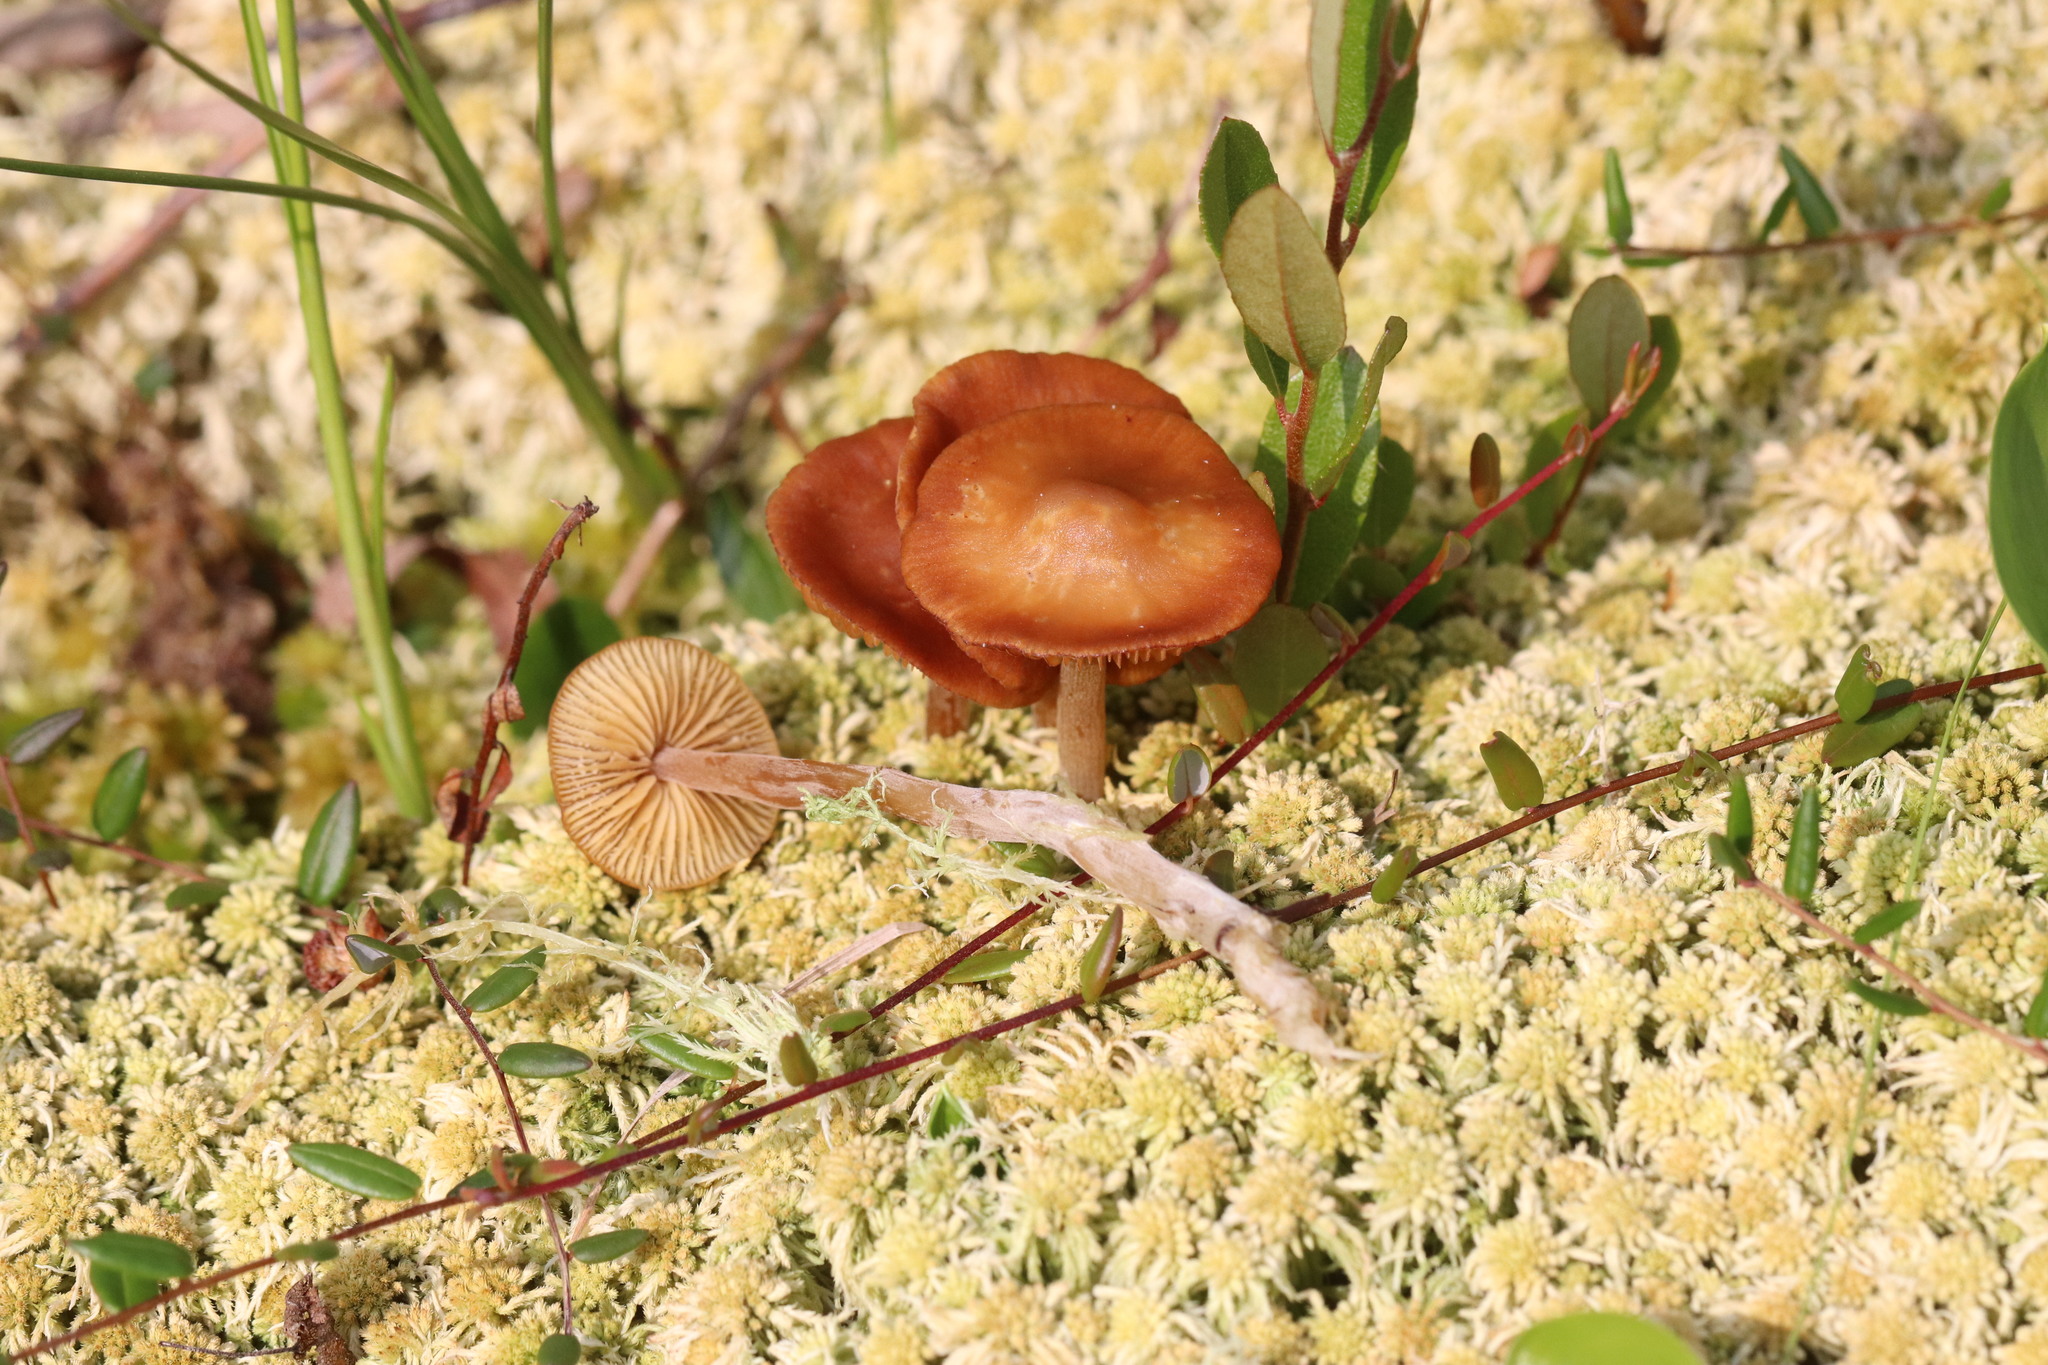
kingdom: Fungi
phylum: Basidiomycota
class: Agaricomycetes
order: Agaricales
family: Hymenogastraceae
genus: Galerina
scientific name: Galerina tibiicystis
